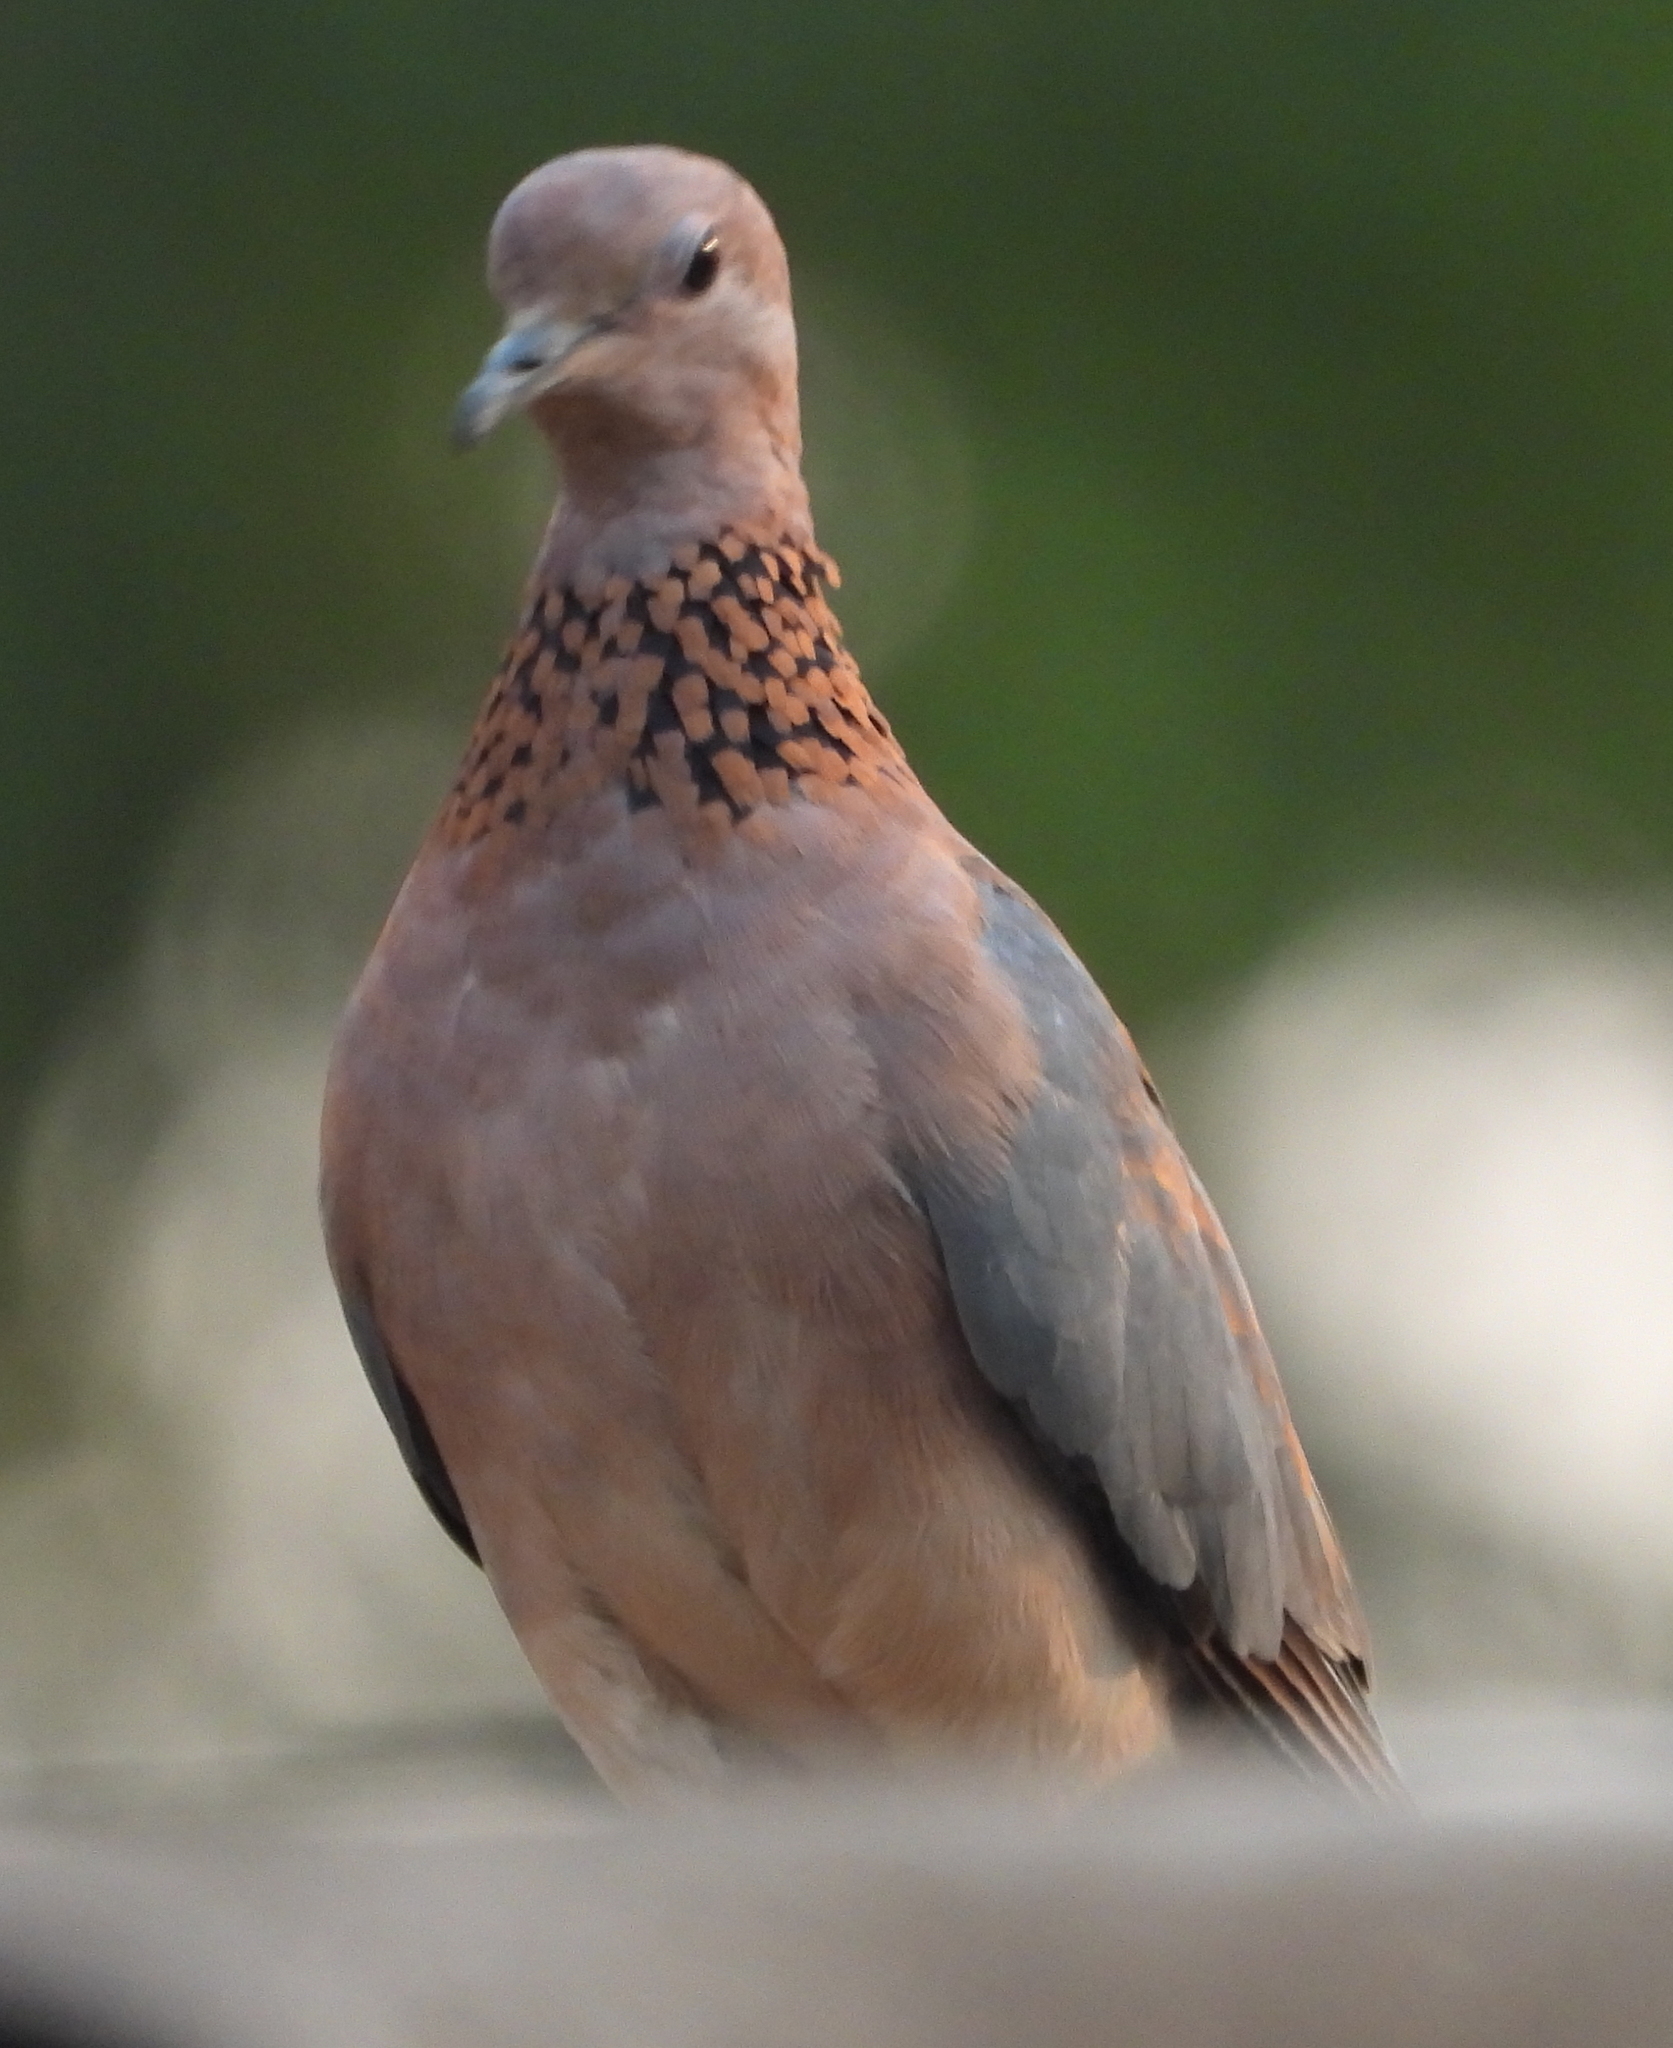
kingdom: Animalia
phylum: Chordata
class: Aves
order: Columbiformes
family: Columbidae
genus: Spilopelia
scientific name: Spilopelia senegalensis
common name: Laughing dove
